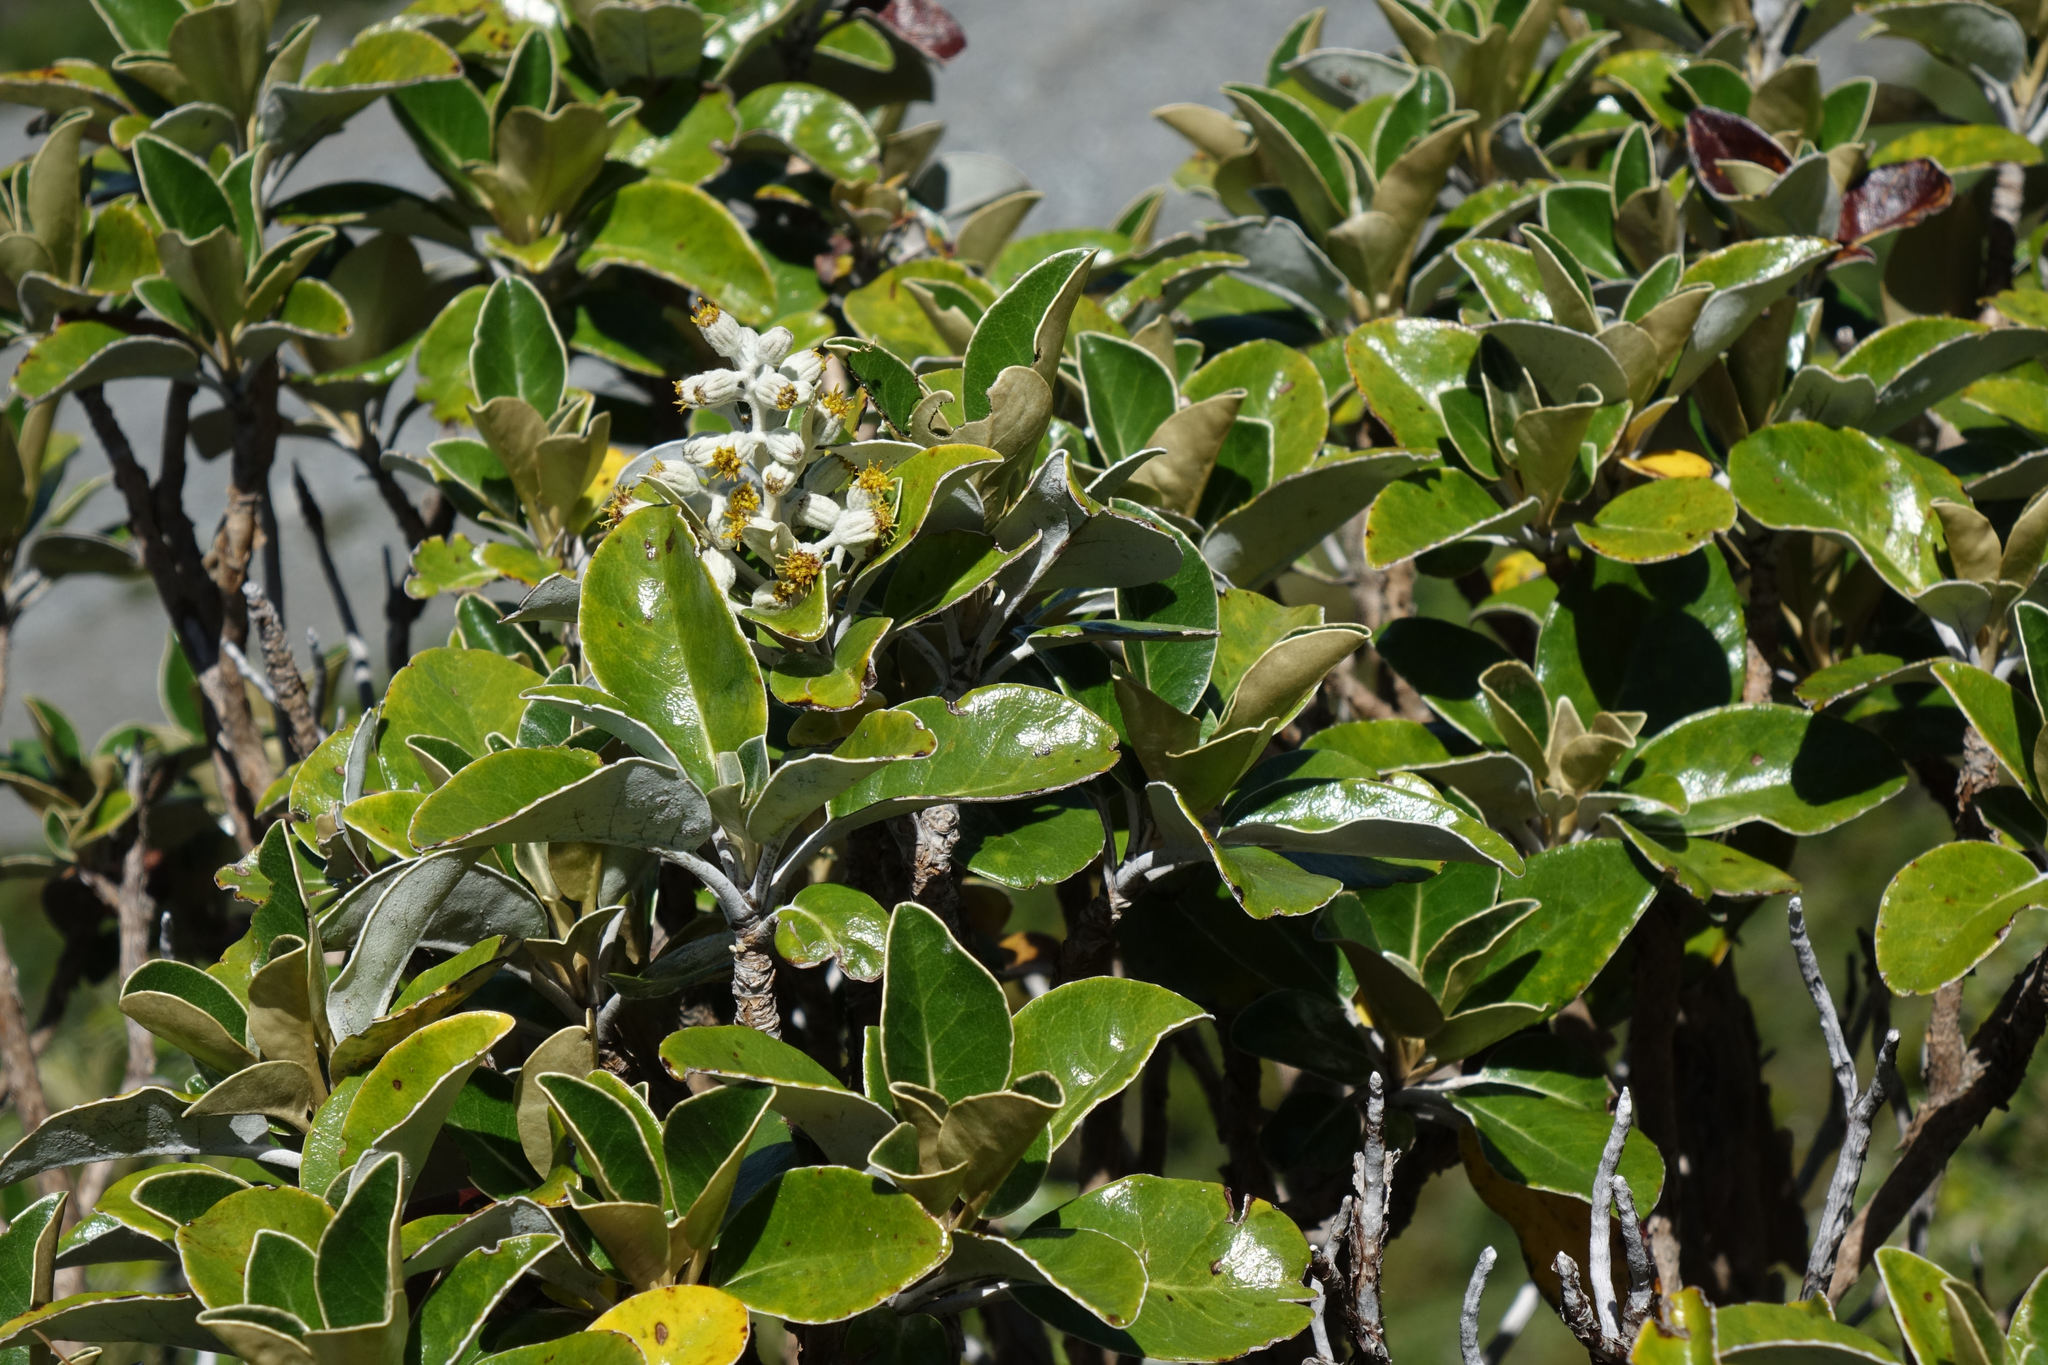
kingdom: Plantae
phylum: Tracheophyta
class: Magnoliopsida
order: Asterales
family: Asteraceae
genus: Brachyglottis
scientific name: Brachyglottis elaeagnifolia
